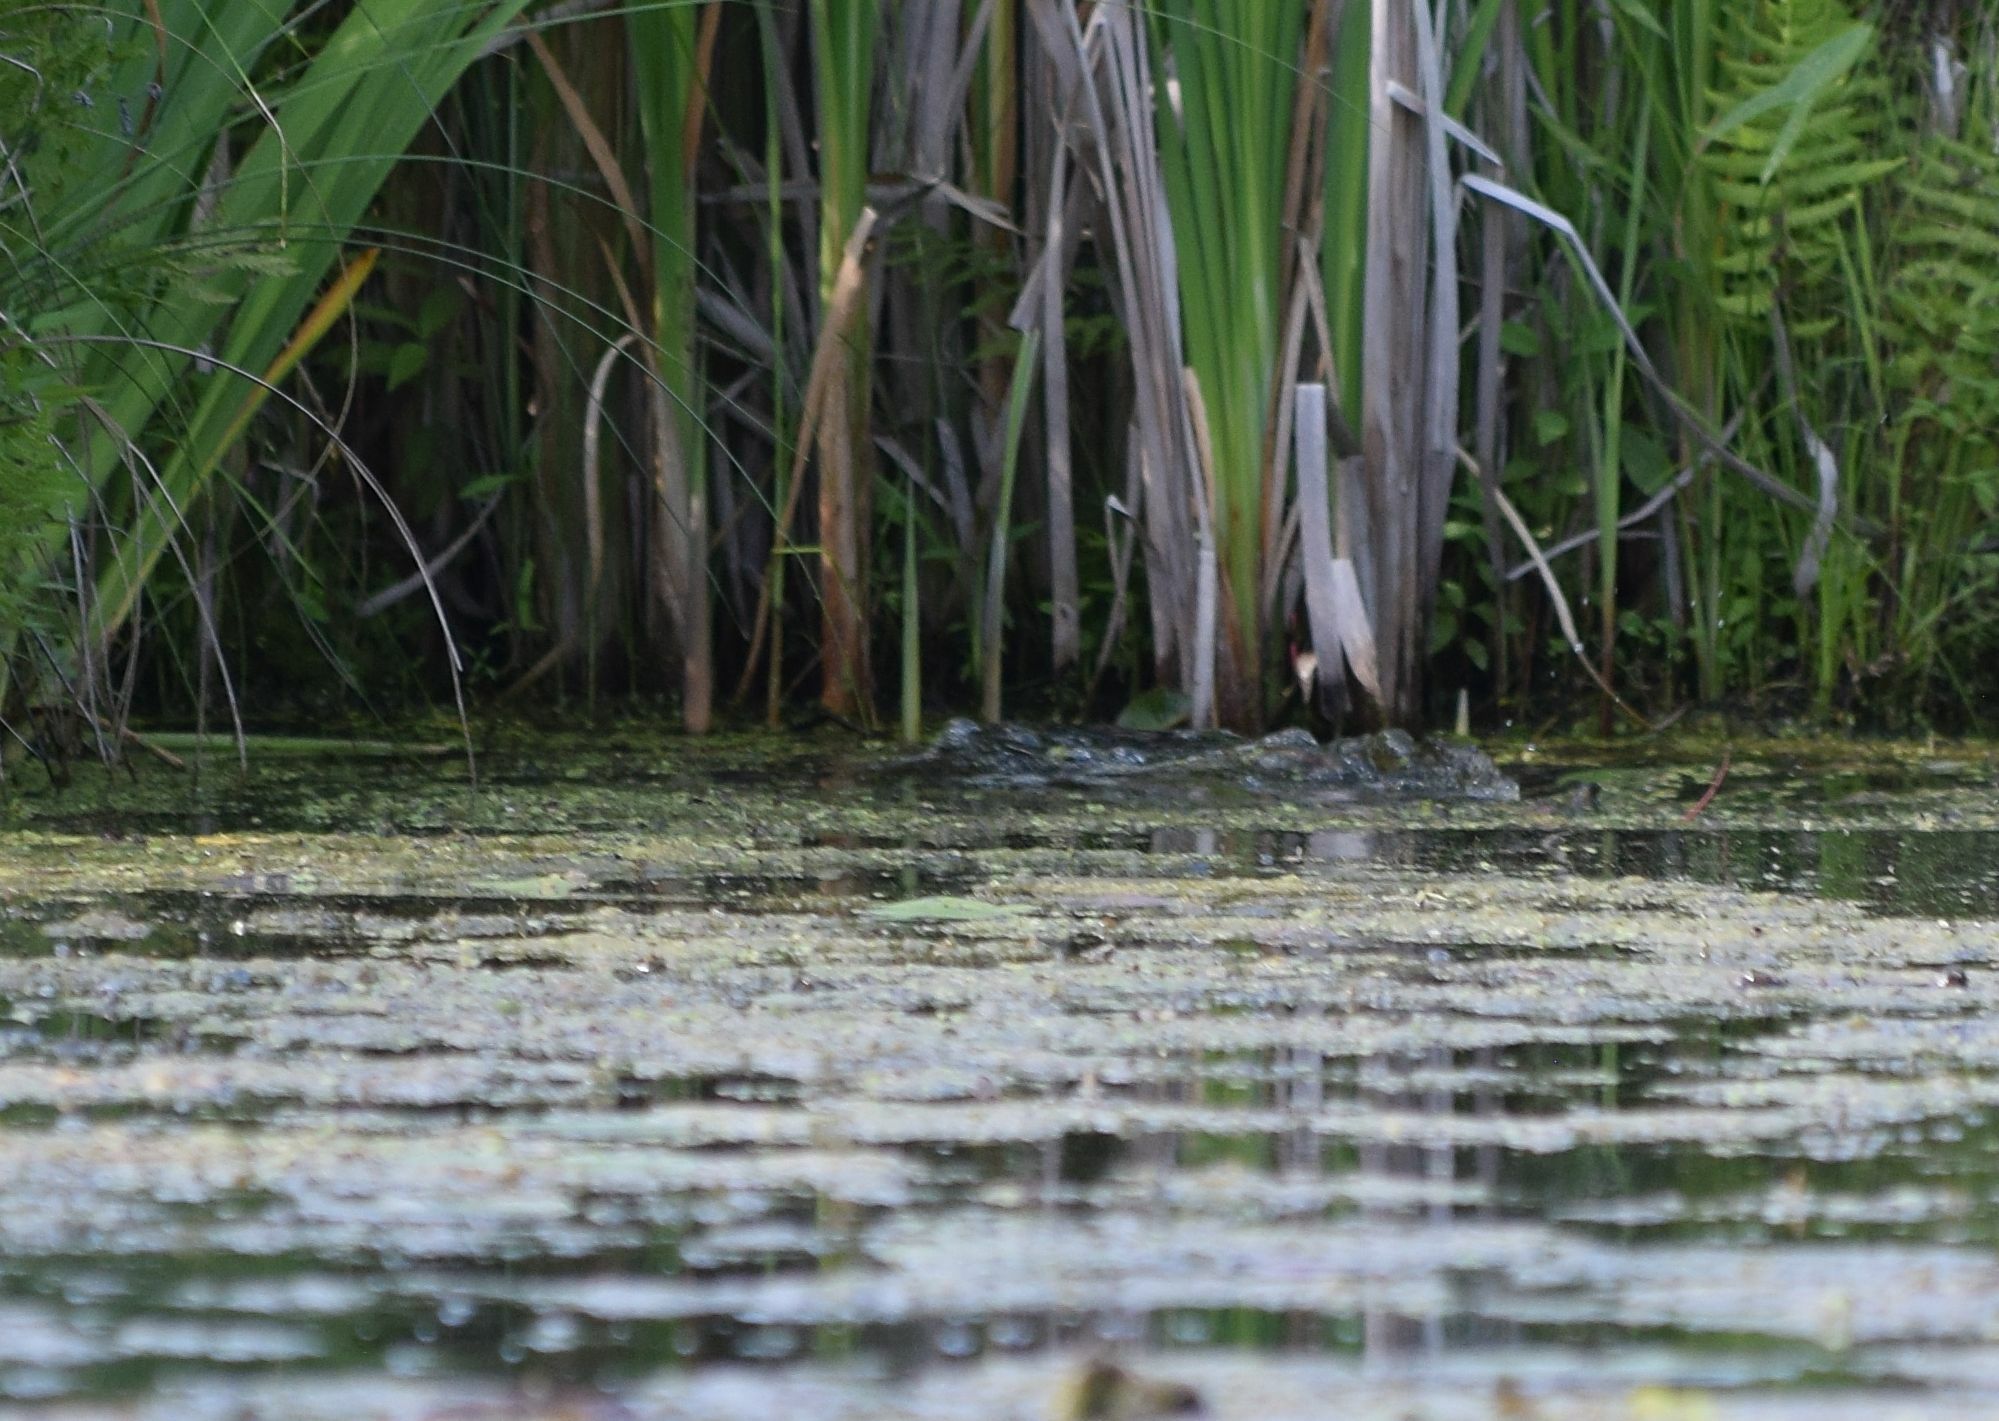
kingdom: Animalia
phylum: Chordata
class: Mammalia
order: Rodentia
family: Castoridae
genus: Castor
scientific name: Castor canadensis
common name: American beaver
